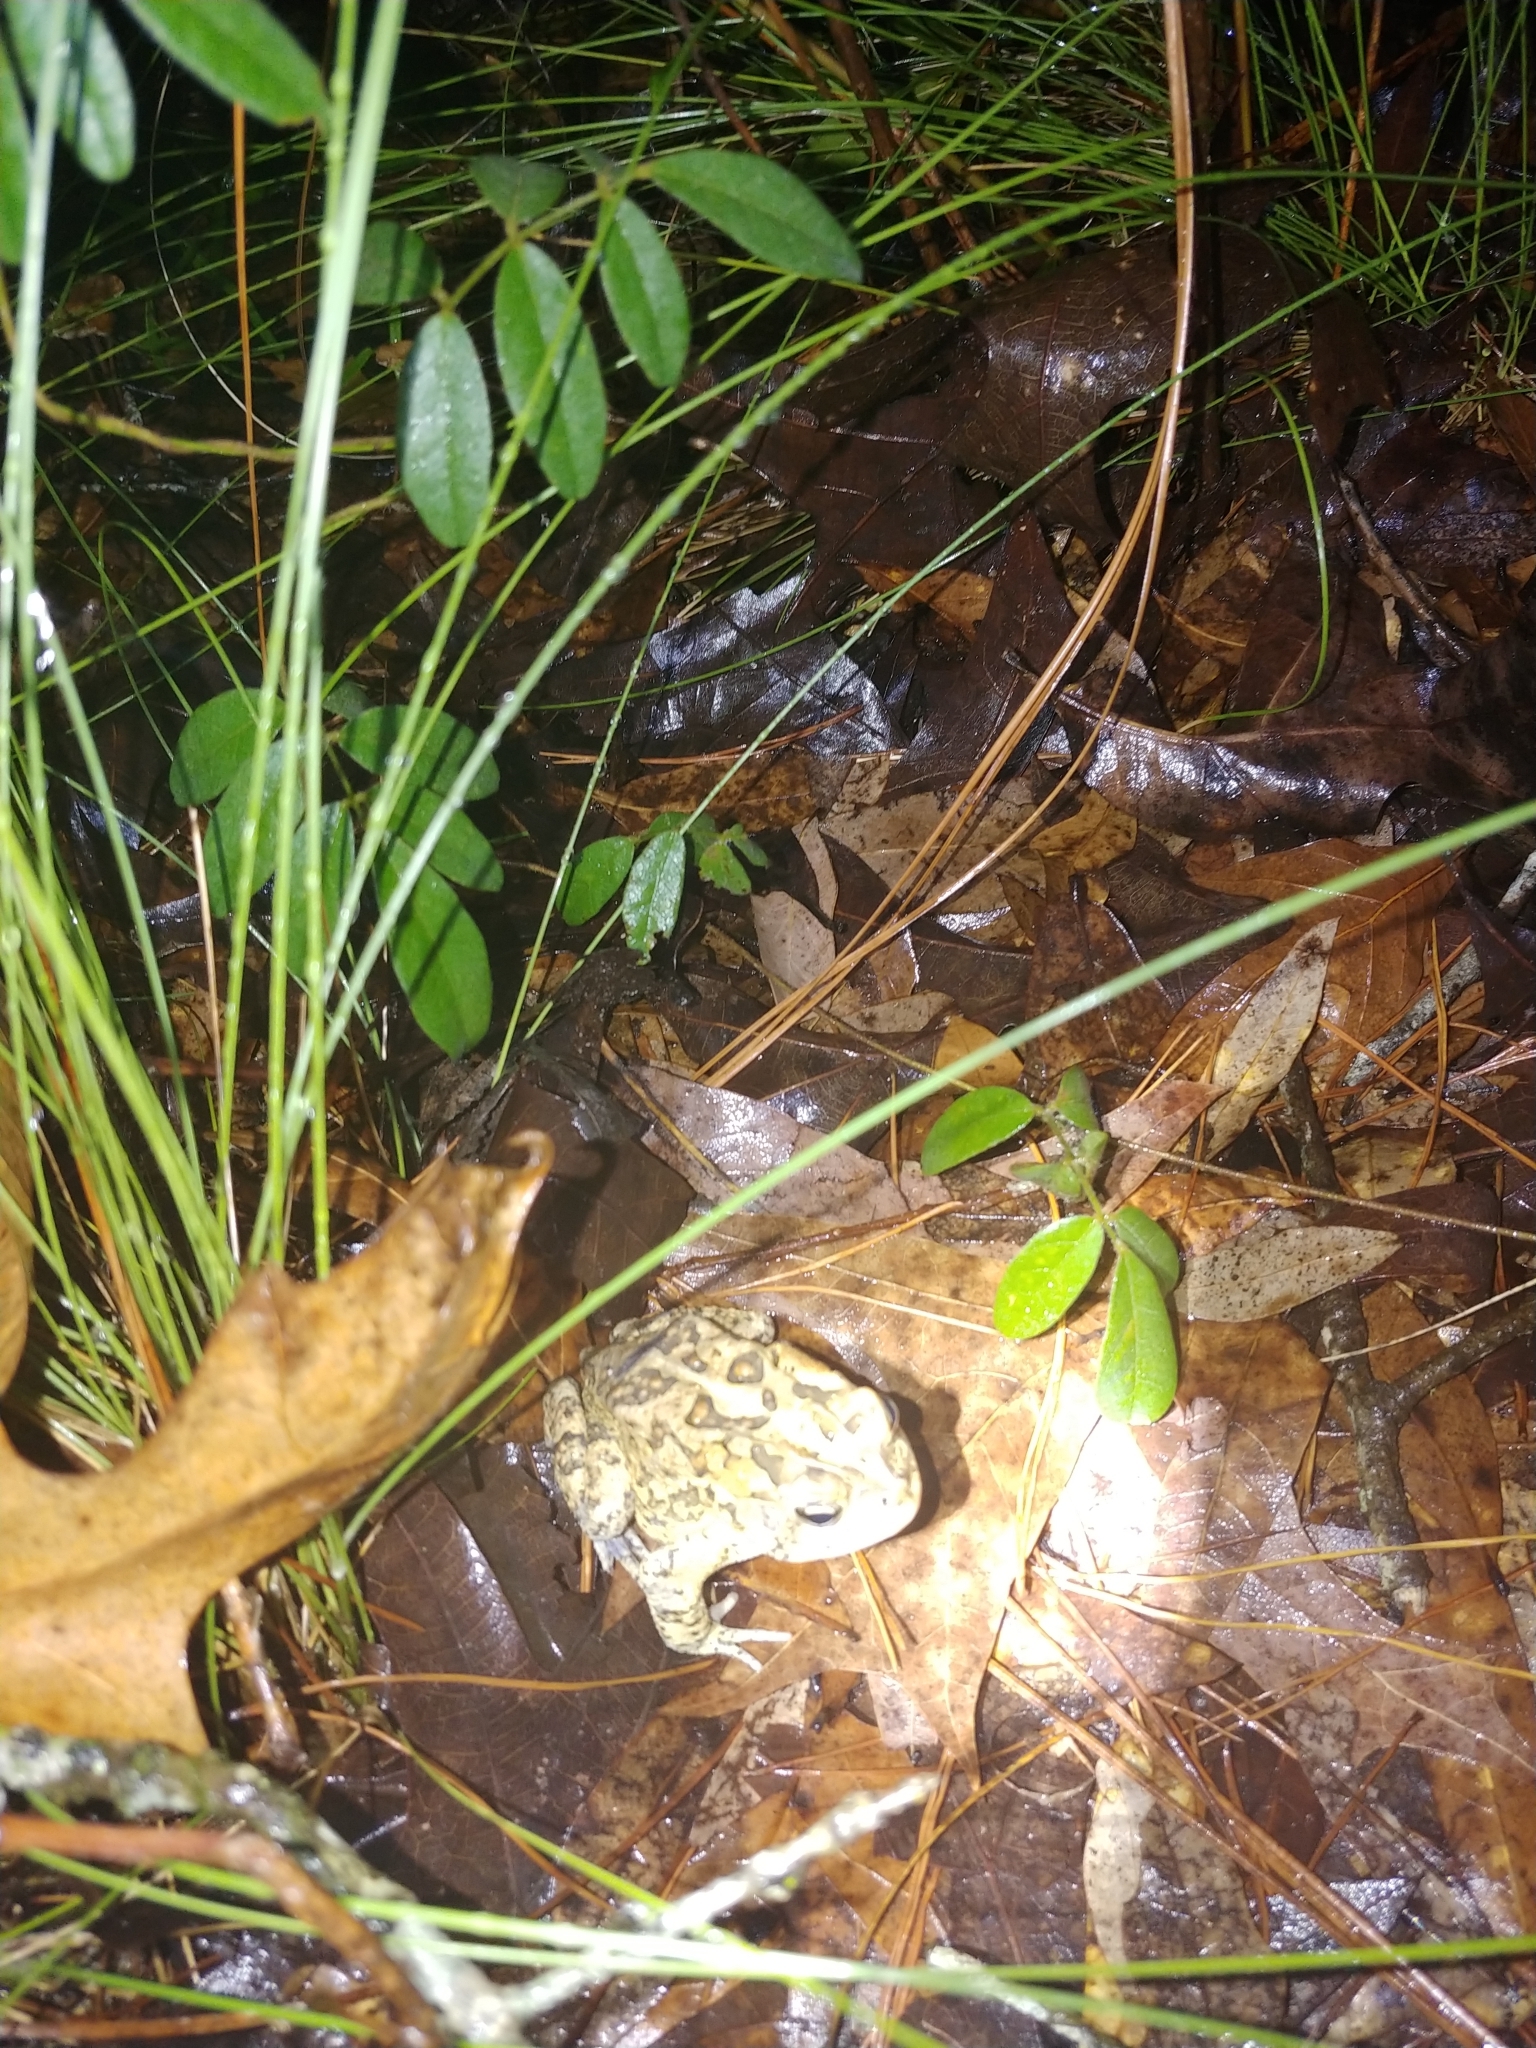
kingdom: Animalia
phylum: Chordata
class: Amphibia
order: Anura
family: Bufonidae
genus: Anaxyrus
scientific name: Anaxyrus terrestris
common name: Southern toad
